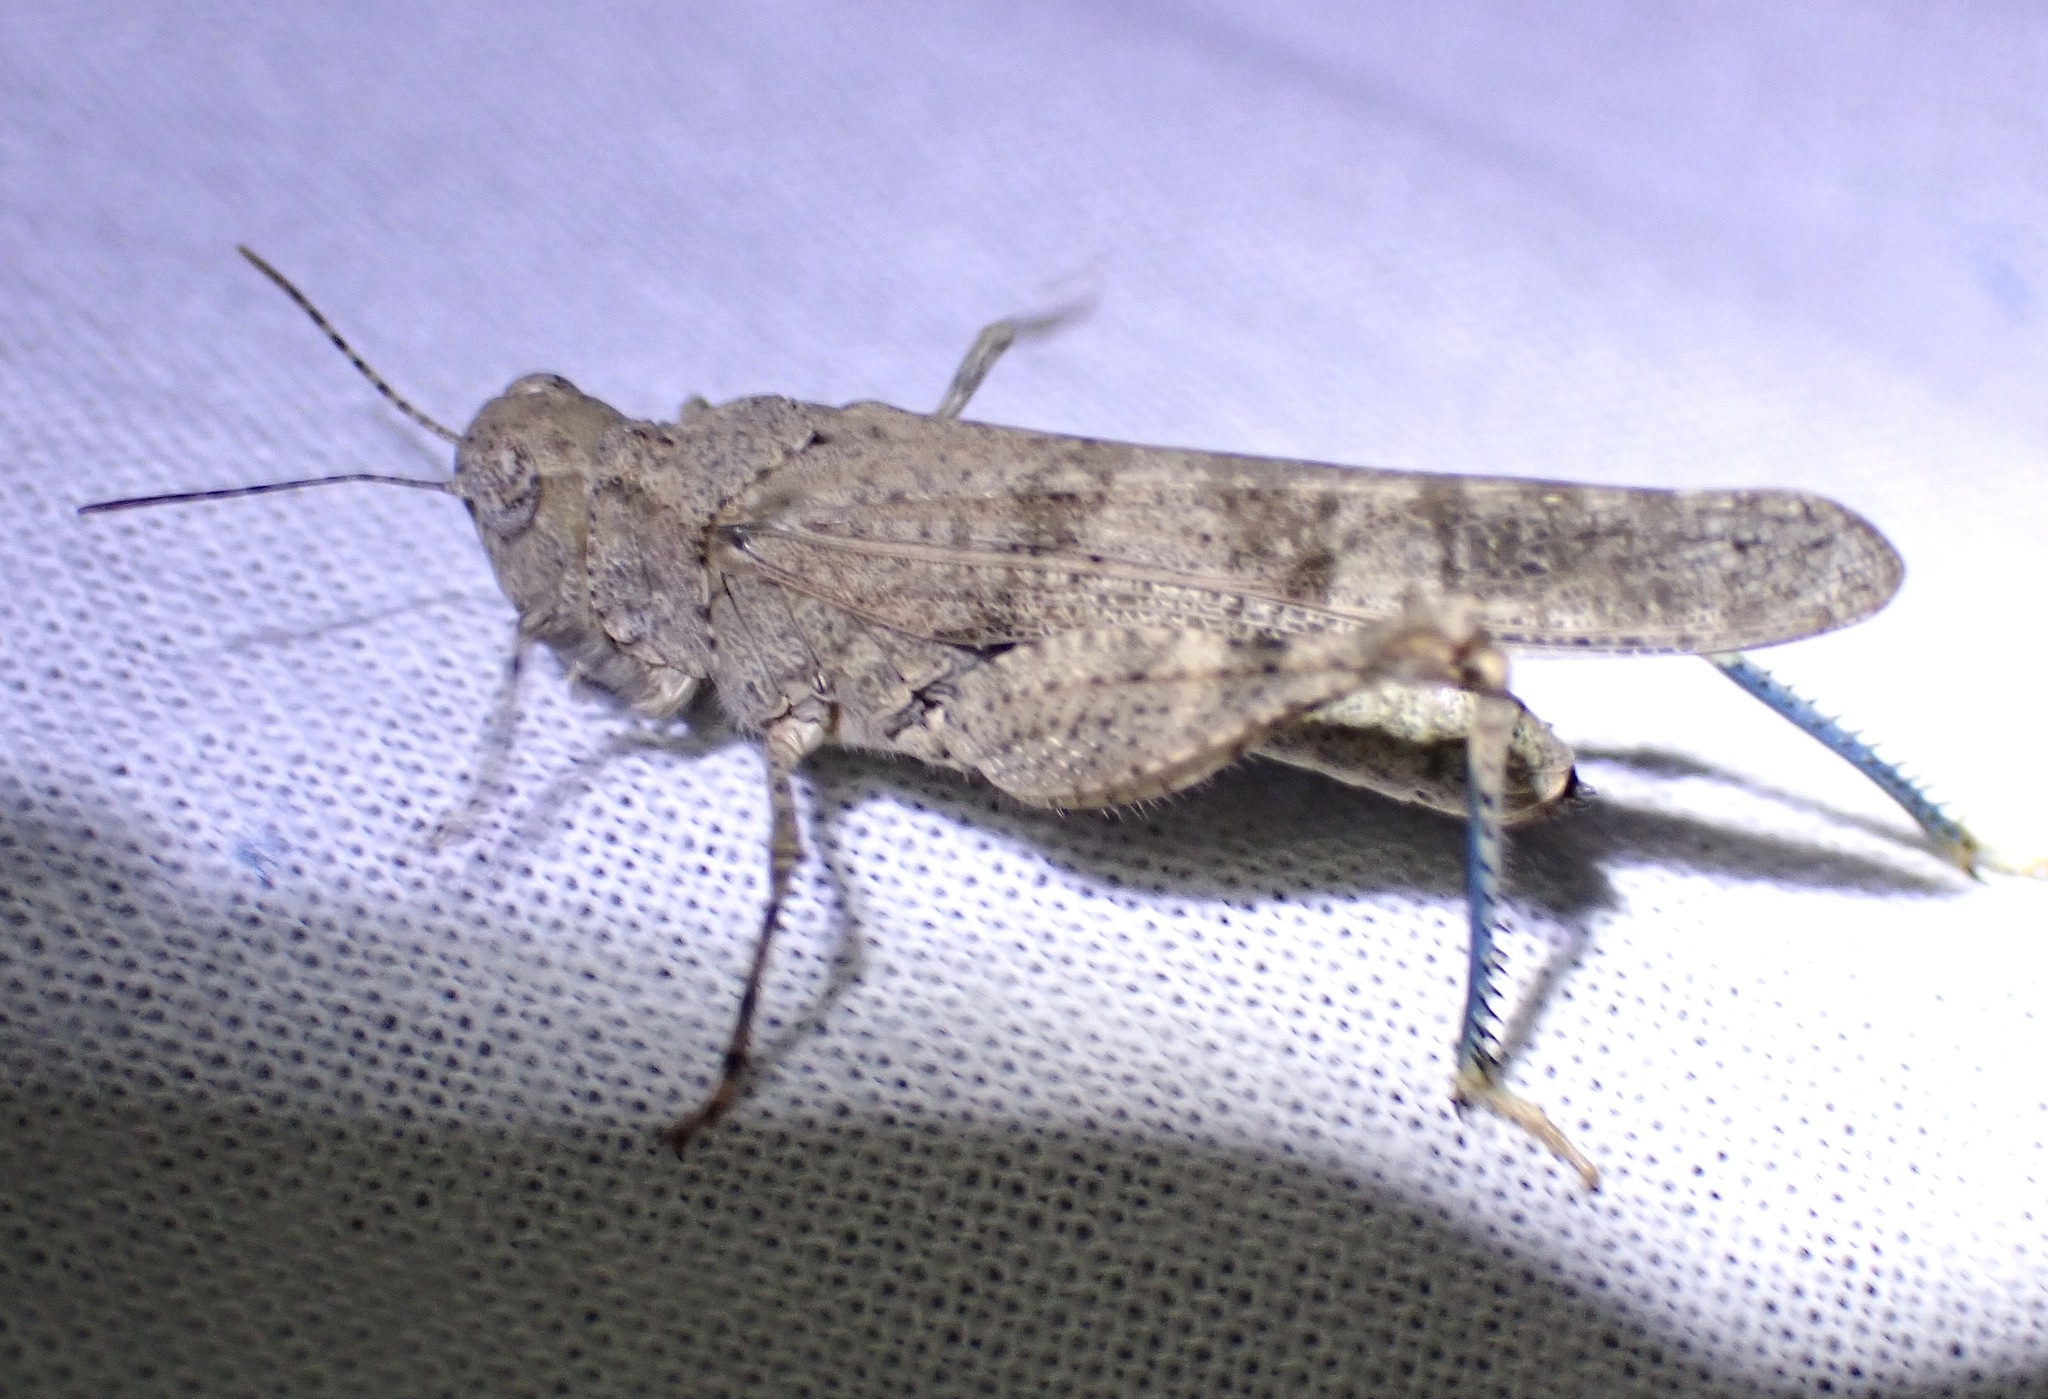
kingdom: Animalia
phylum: Arthropoda
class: Insecta
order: Orthoptera
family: Acrididae
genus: Trimerotropis
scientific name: Trimerotropis occidentalis
